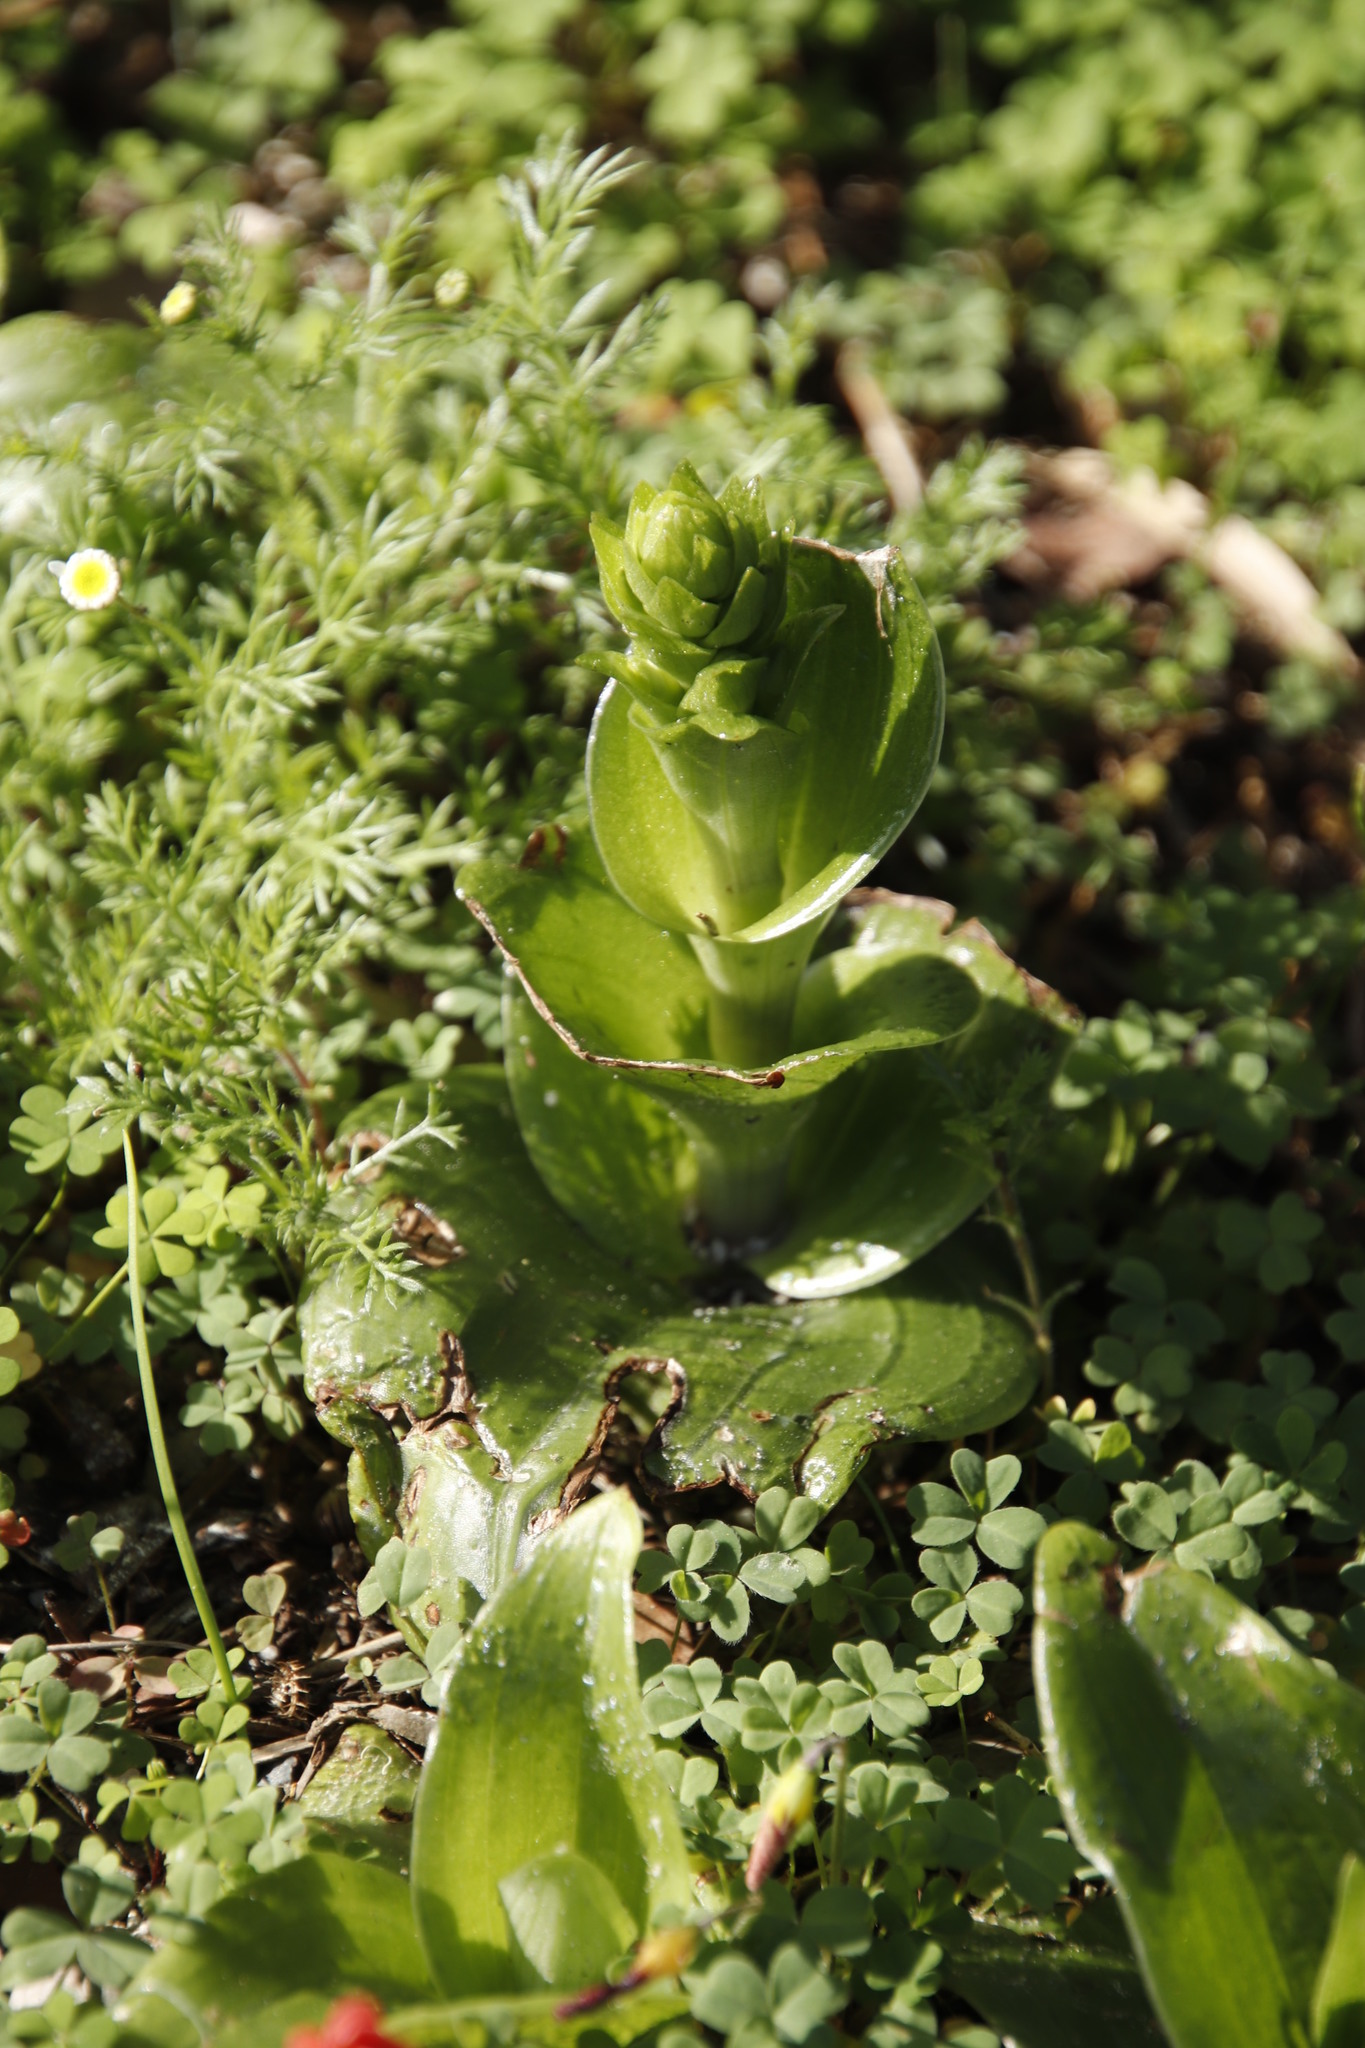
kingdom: Plantae
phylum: Tracheophyta
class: Liliopsida
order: Asparagales
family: Orchidaceae
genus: Satyrium
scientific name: Satyrium odorum
